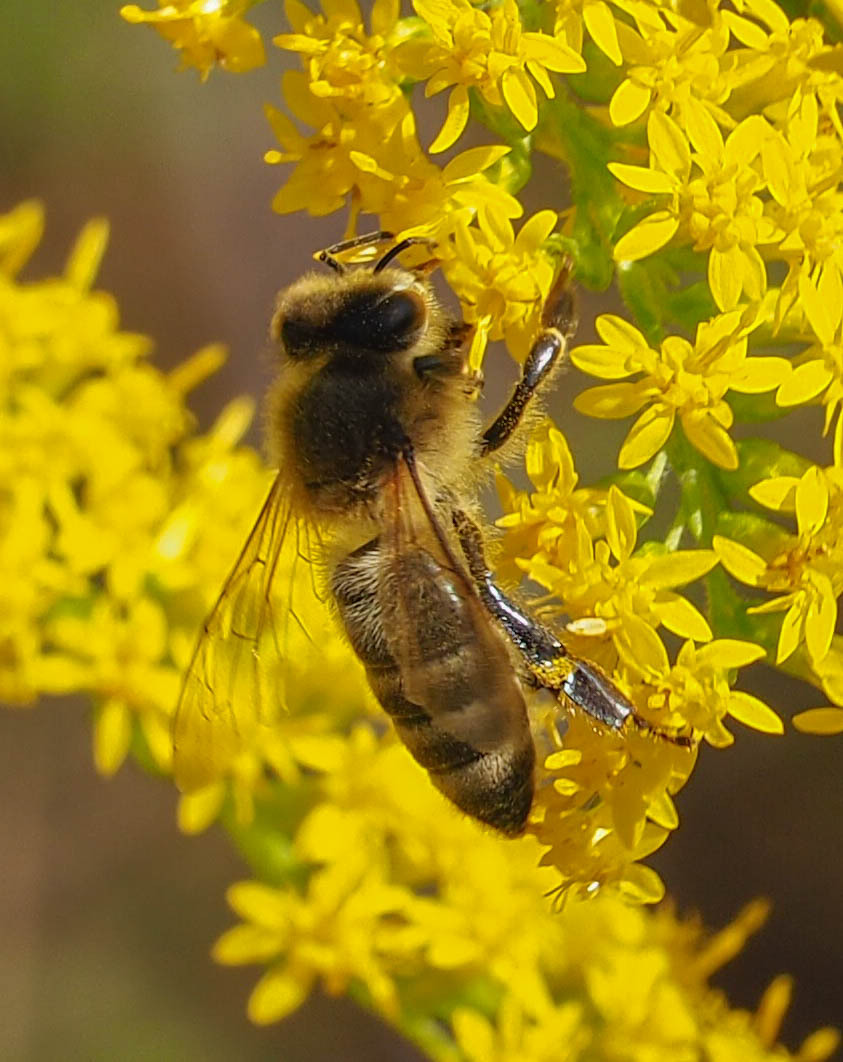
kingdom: Animalia
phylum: Arthropoda
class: Insecta
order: Hymenoptera
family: Apidae
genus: Apis
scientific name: Apis mellifera
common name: Honey bee
